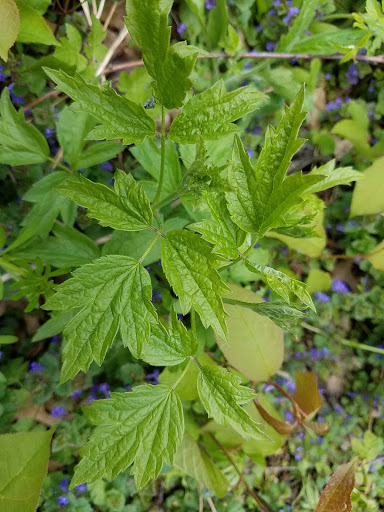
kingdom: Plantae
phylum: Tracheophyta
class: Magnoliopsida
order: Ranunculales
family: Ranunculaceae
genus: Clematis
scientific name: Clematis virginiana
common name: Virgin's-bower
